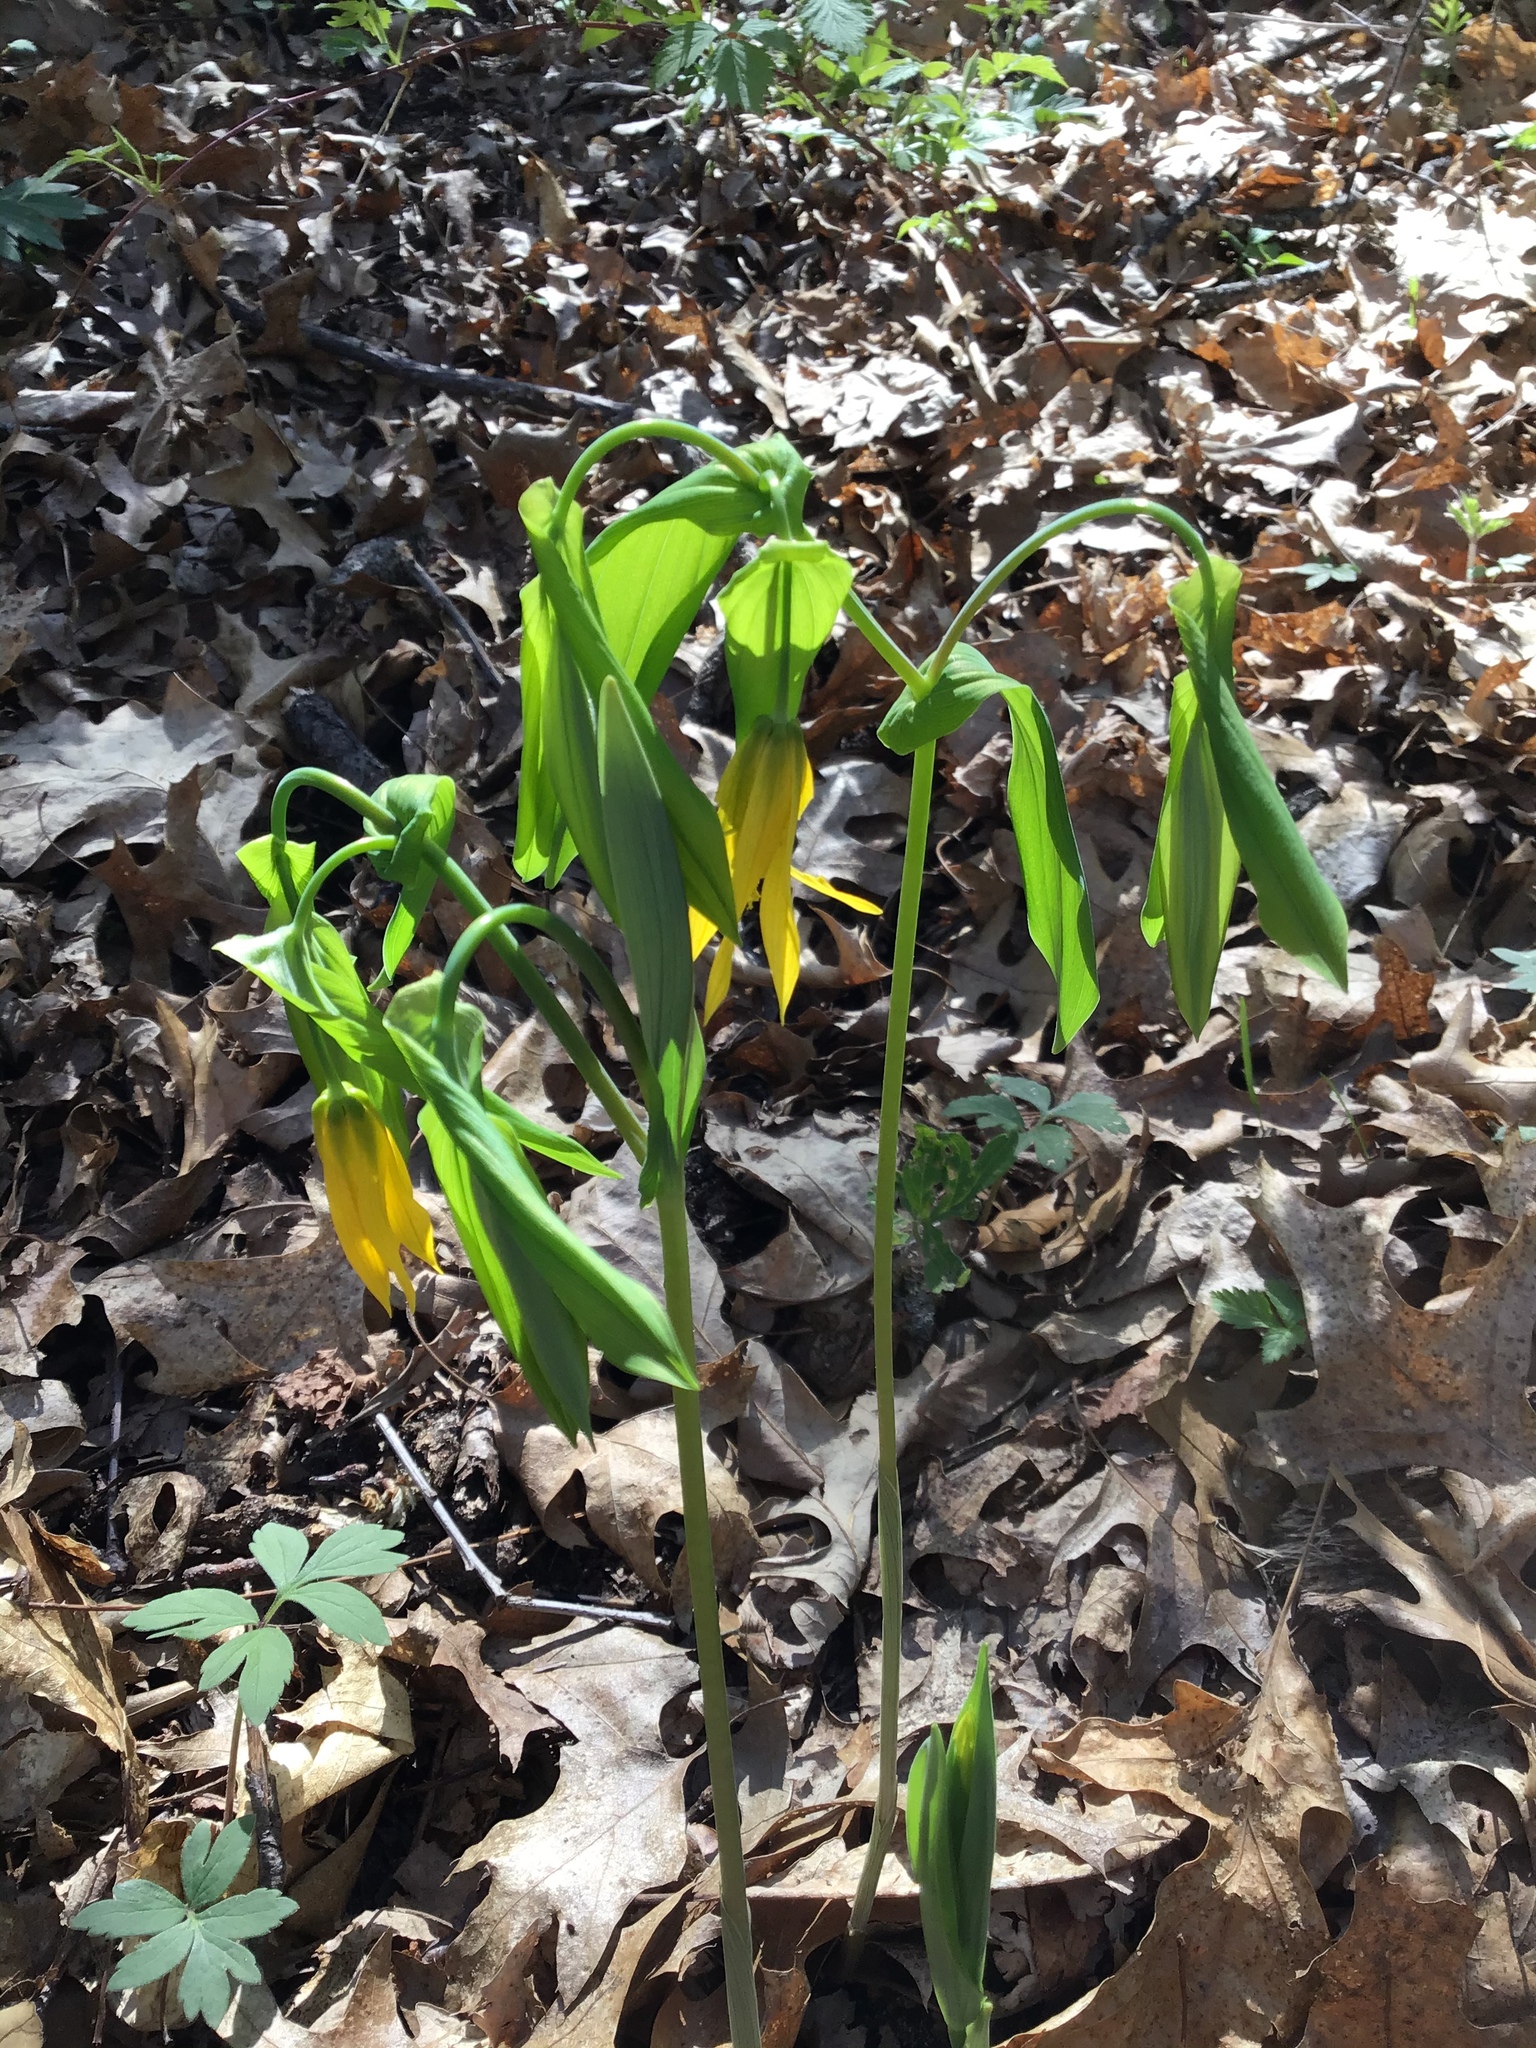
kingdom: Plantae
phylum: Tracheophyta
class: Liliopsida
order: Liliales
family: Colchicaceae
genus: Uvularia
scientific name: Uvularia grandiflora
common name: Bellwort
